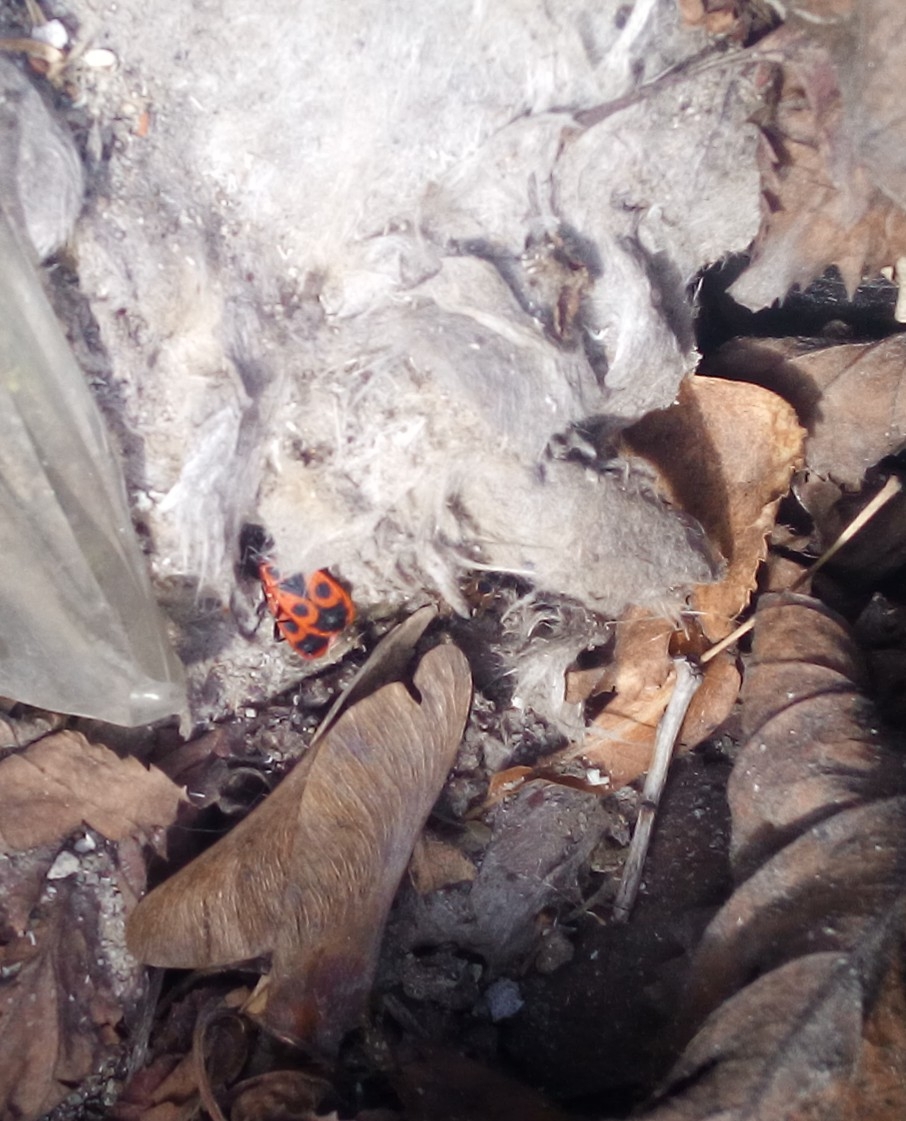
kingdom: Animalia
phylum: Arthropoda
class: Insecta
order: Hemiptera
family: Pyrrhocoridae
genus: Pyrrhocoris
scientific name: Pyrrhocoris apterus
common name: Firebug
